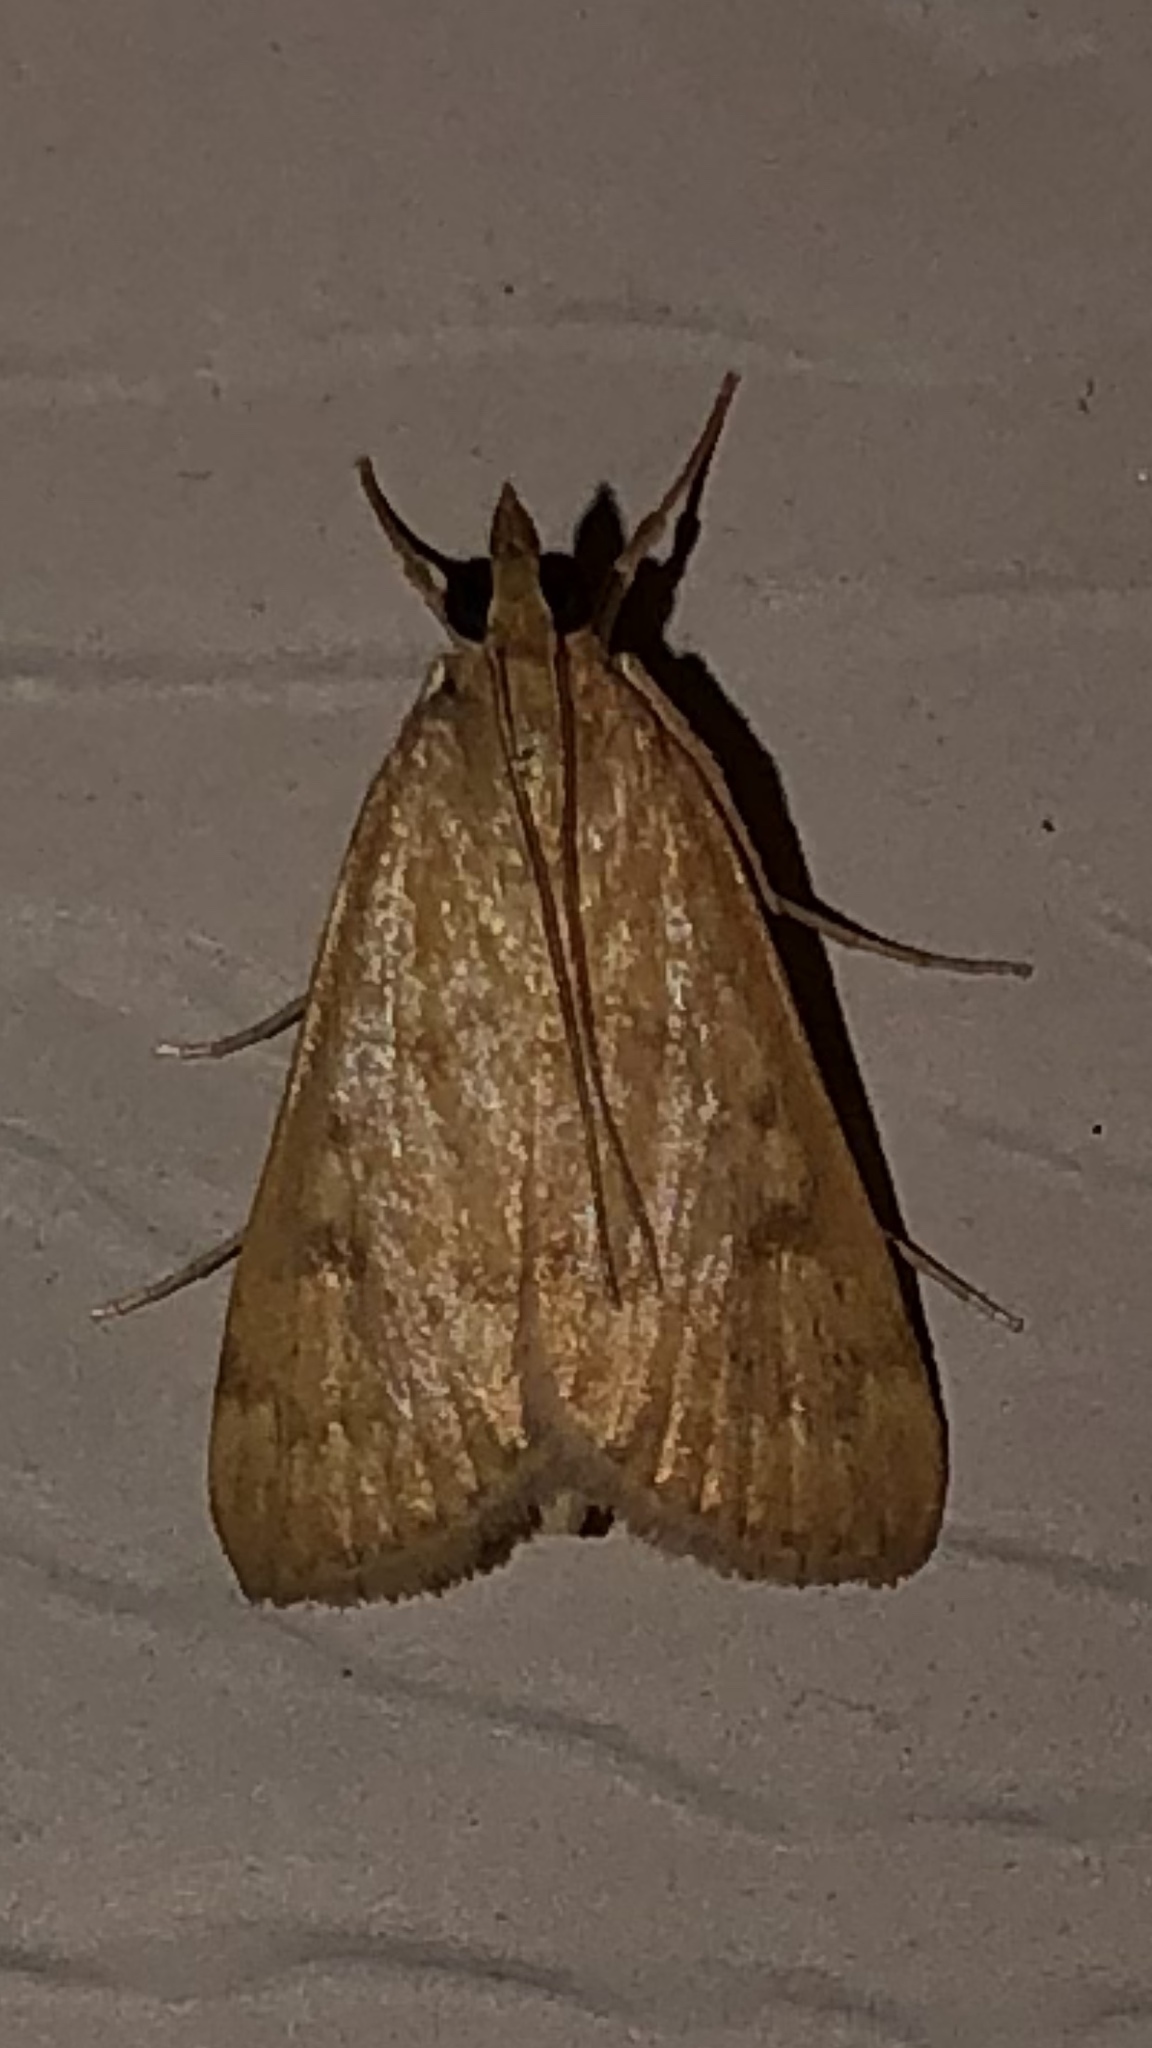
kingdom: Animalia
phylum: Arthropoda
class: Insecta
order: Lepidoptera
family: Crambidae
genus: Achyra
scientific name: Achyra rantalis
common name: Garden webworm
